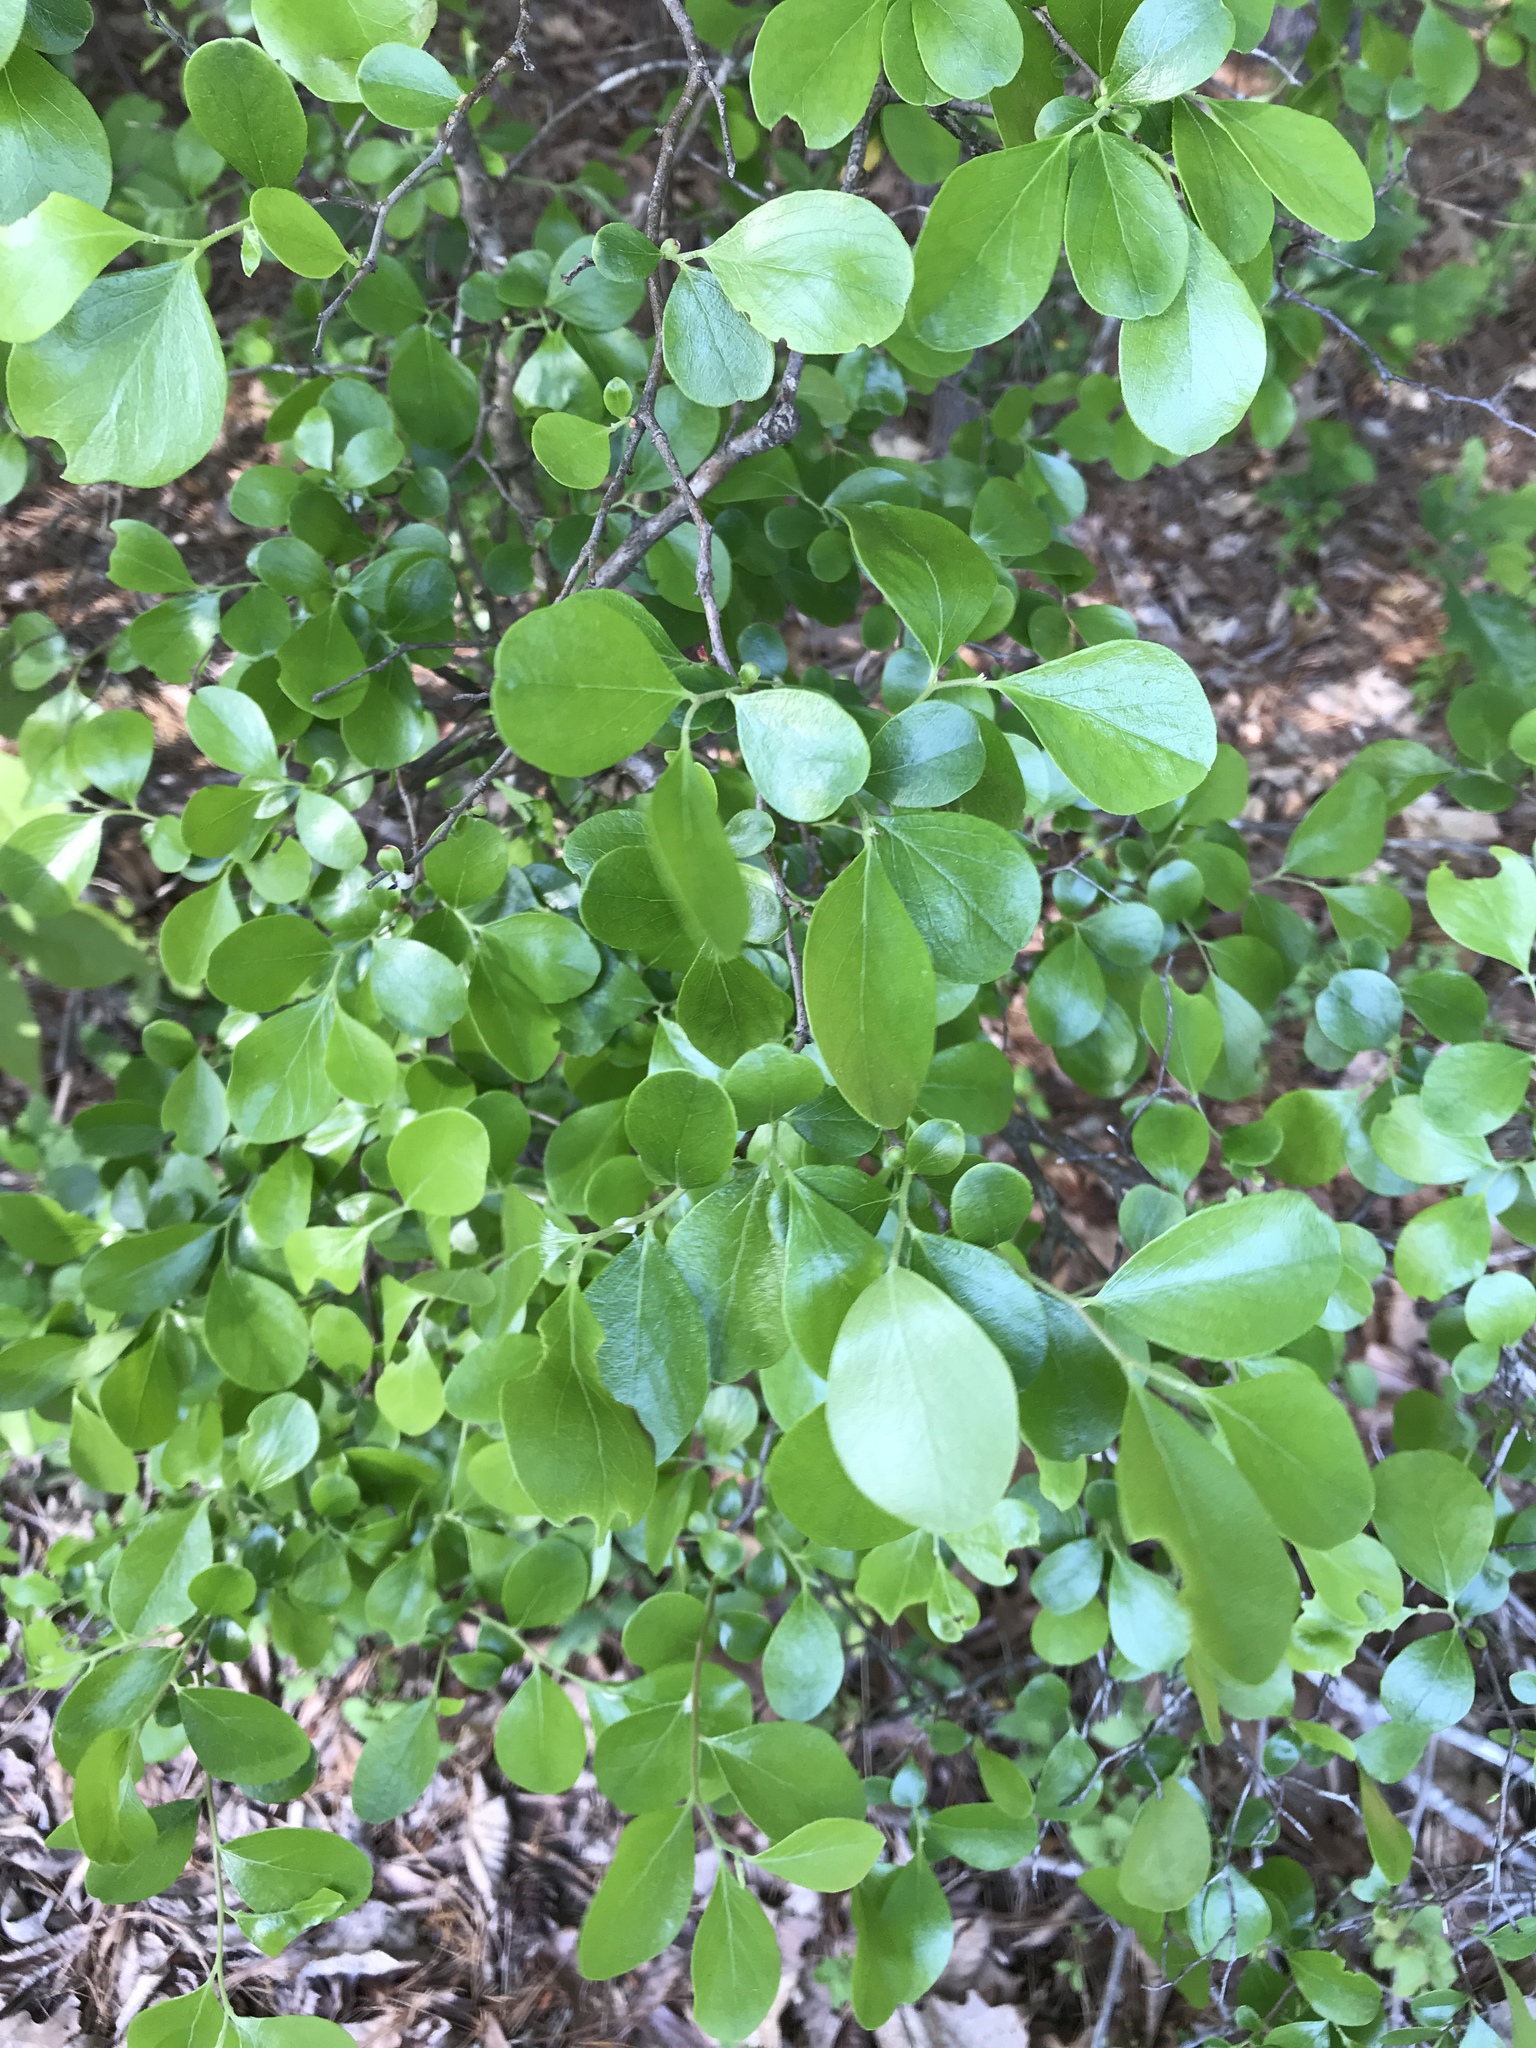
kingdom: Plantae
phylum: Tracheophyta
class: Magnoliopsida
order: Ericales
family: Ericaceae
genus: Vaccinium
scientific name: Vaccinium arboreum
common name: Farkleberry
